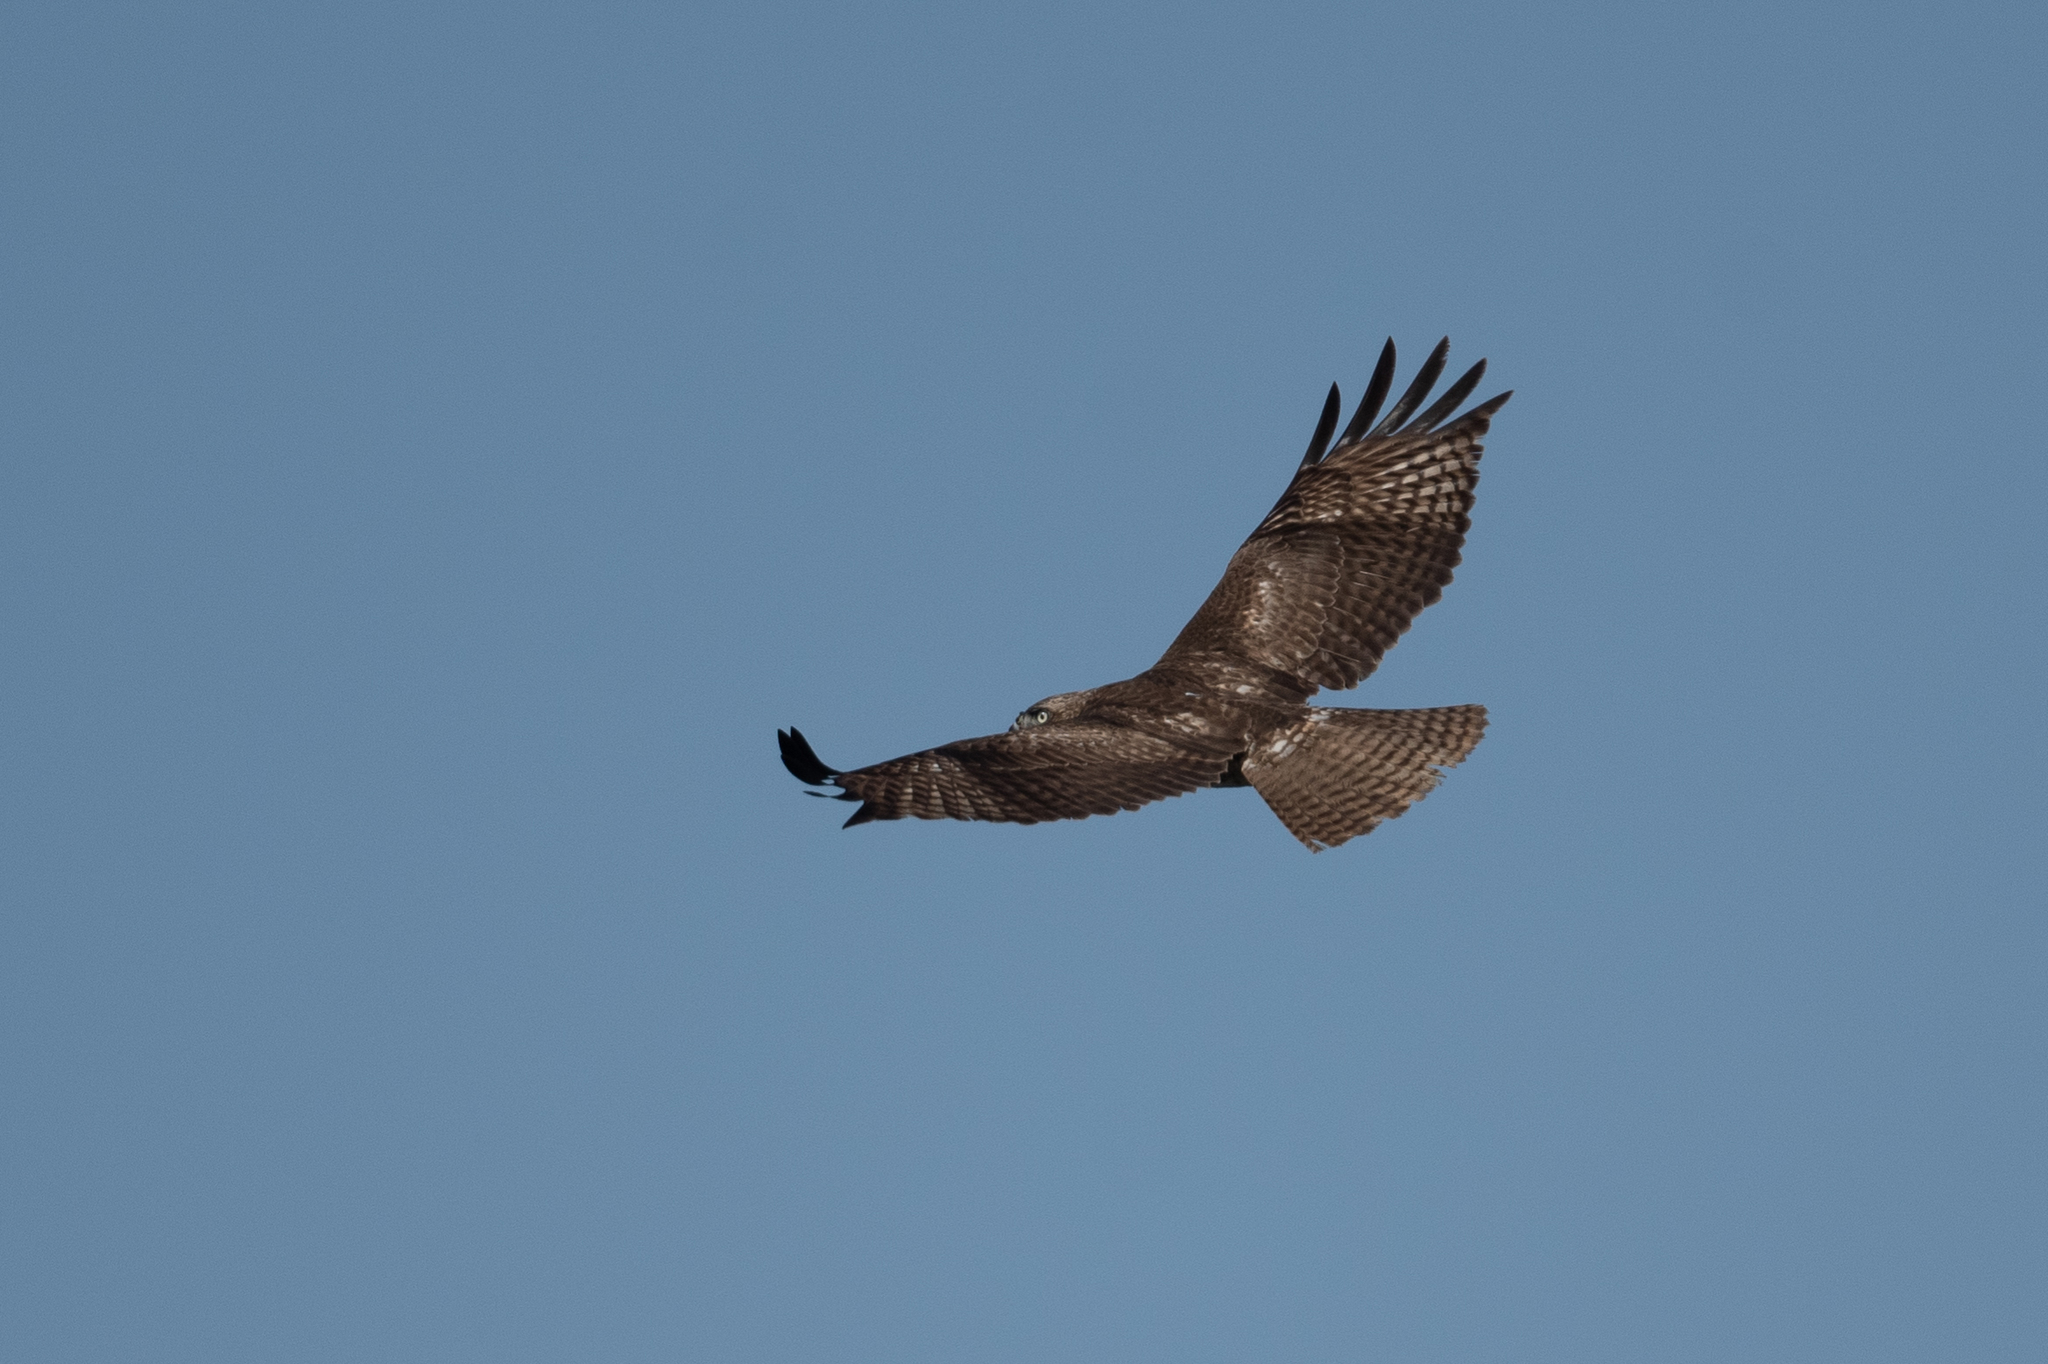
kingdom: Animalia
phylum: Chordata
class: Aves
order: Accipitriformes
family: Accipitridae
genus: Buteo
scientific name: Buteo jamaicensis
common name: Red-tailed hawk
